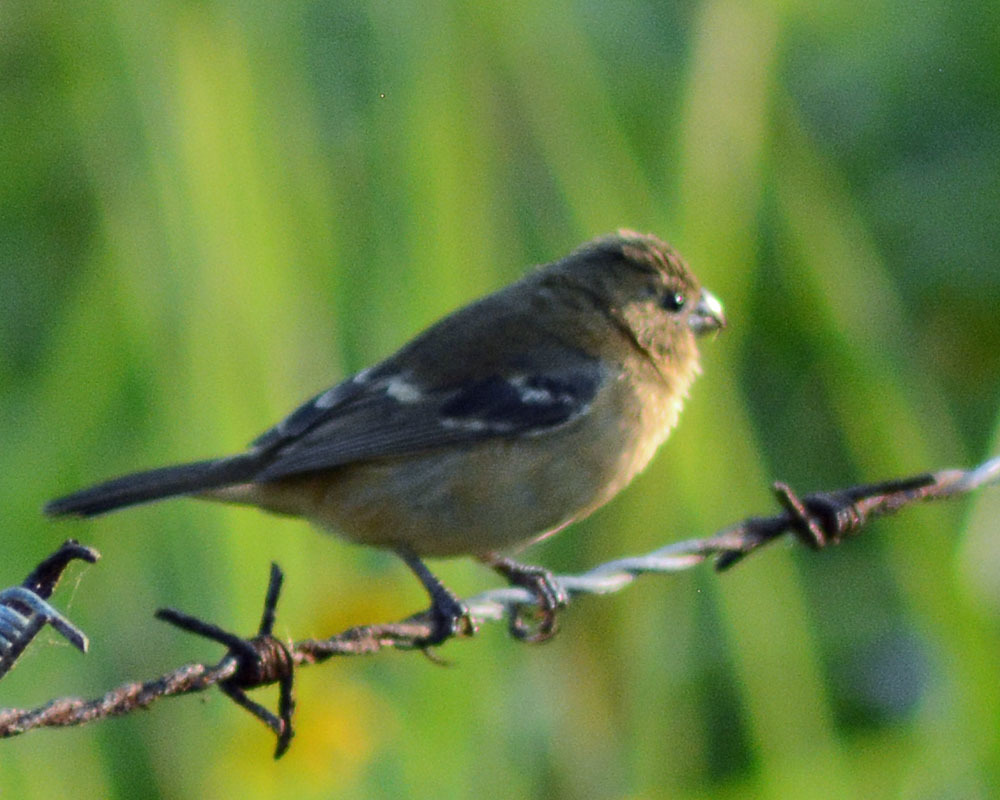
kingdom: Animalia
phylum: Chordata
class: Aves
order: Passeriformes
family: Thraupidae
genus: Sporophila
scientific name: Sporophila morelleti
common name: Morelet's seedeater
